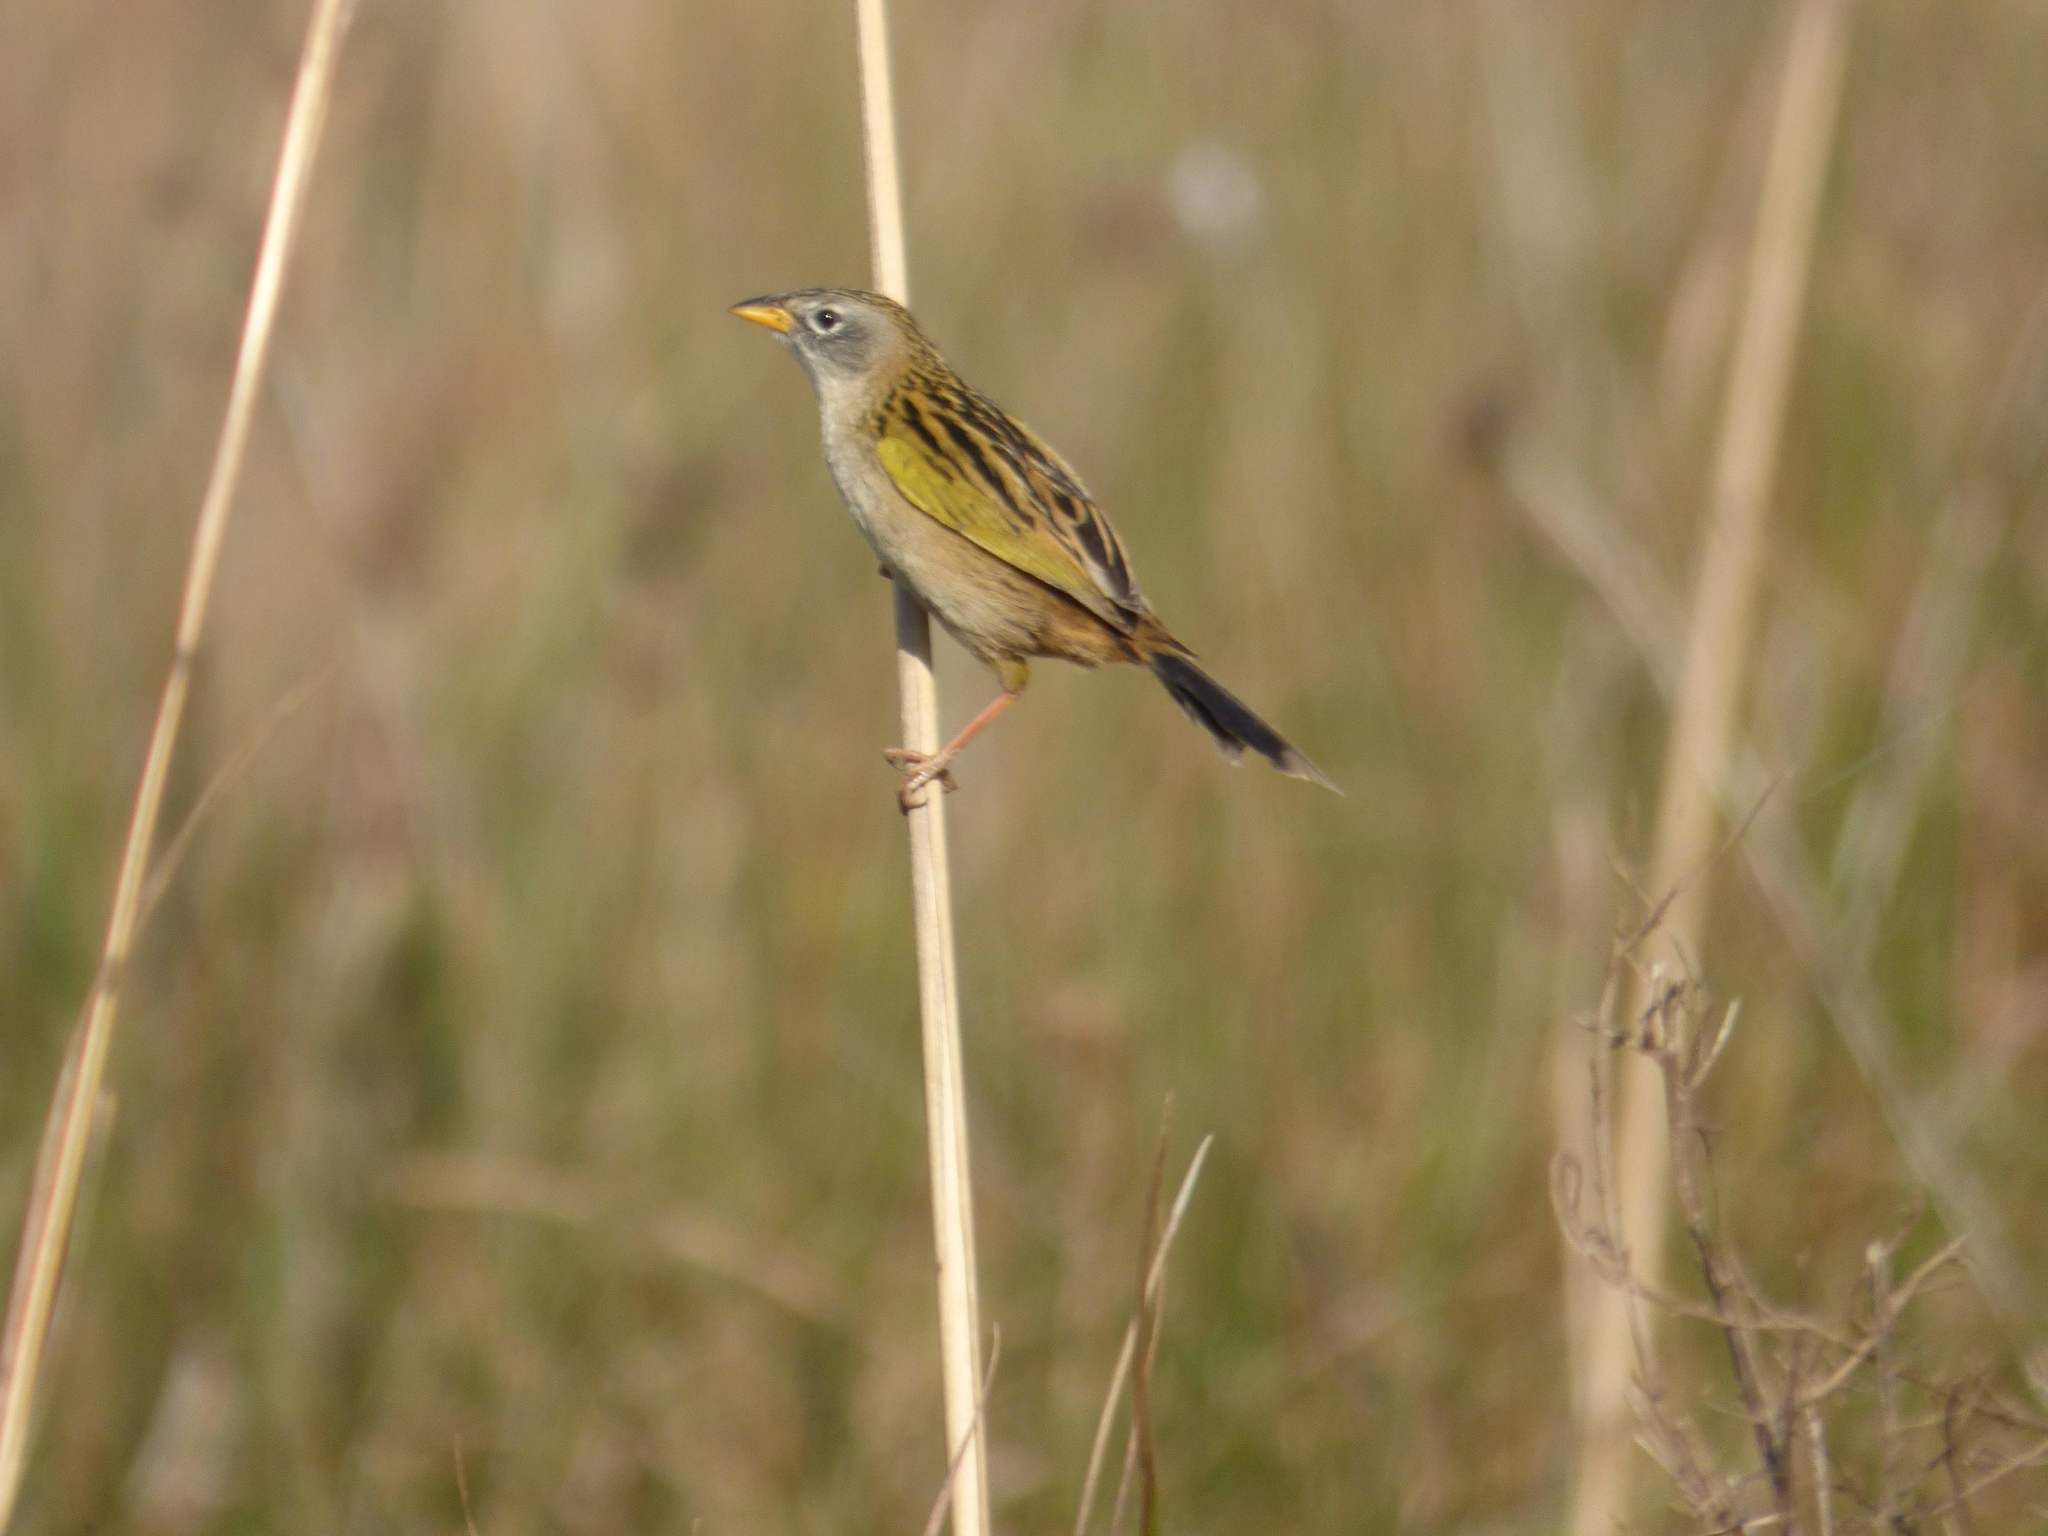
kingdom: Animalia
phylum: Chordata
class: Aves
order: Passeriformes
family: Thraupidae
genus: Emberizoides
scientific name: Emberizoides ypiranganus
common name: Lesser grass finch
